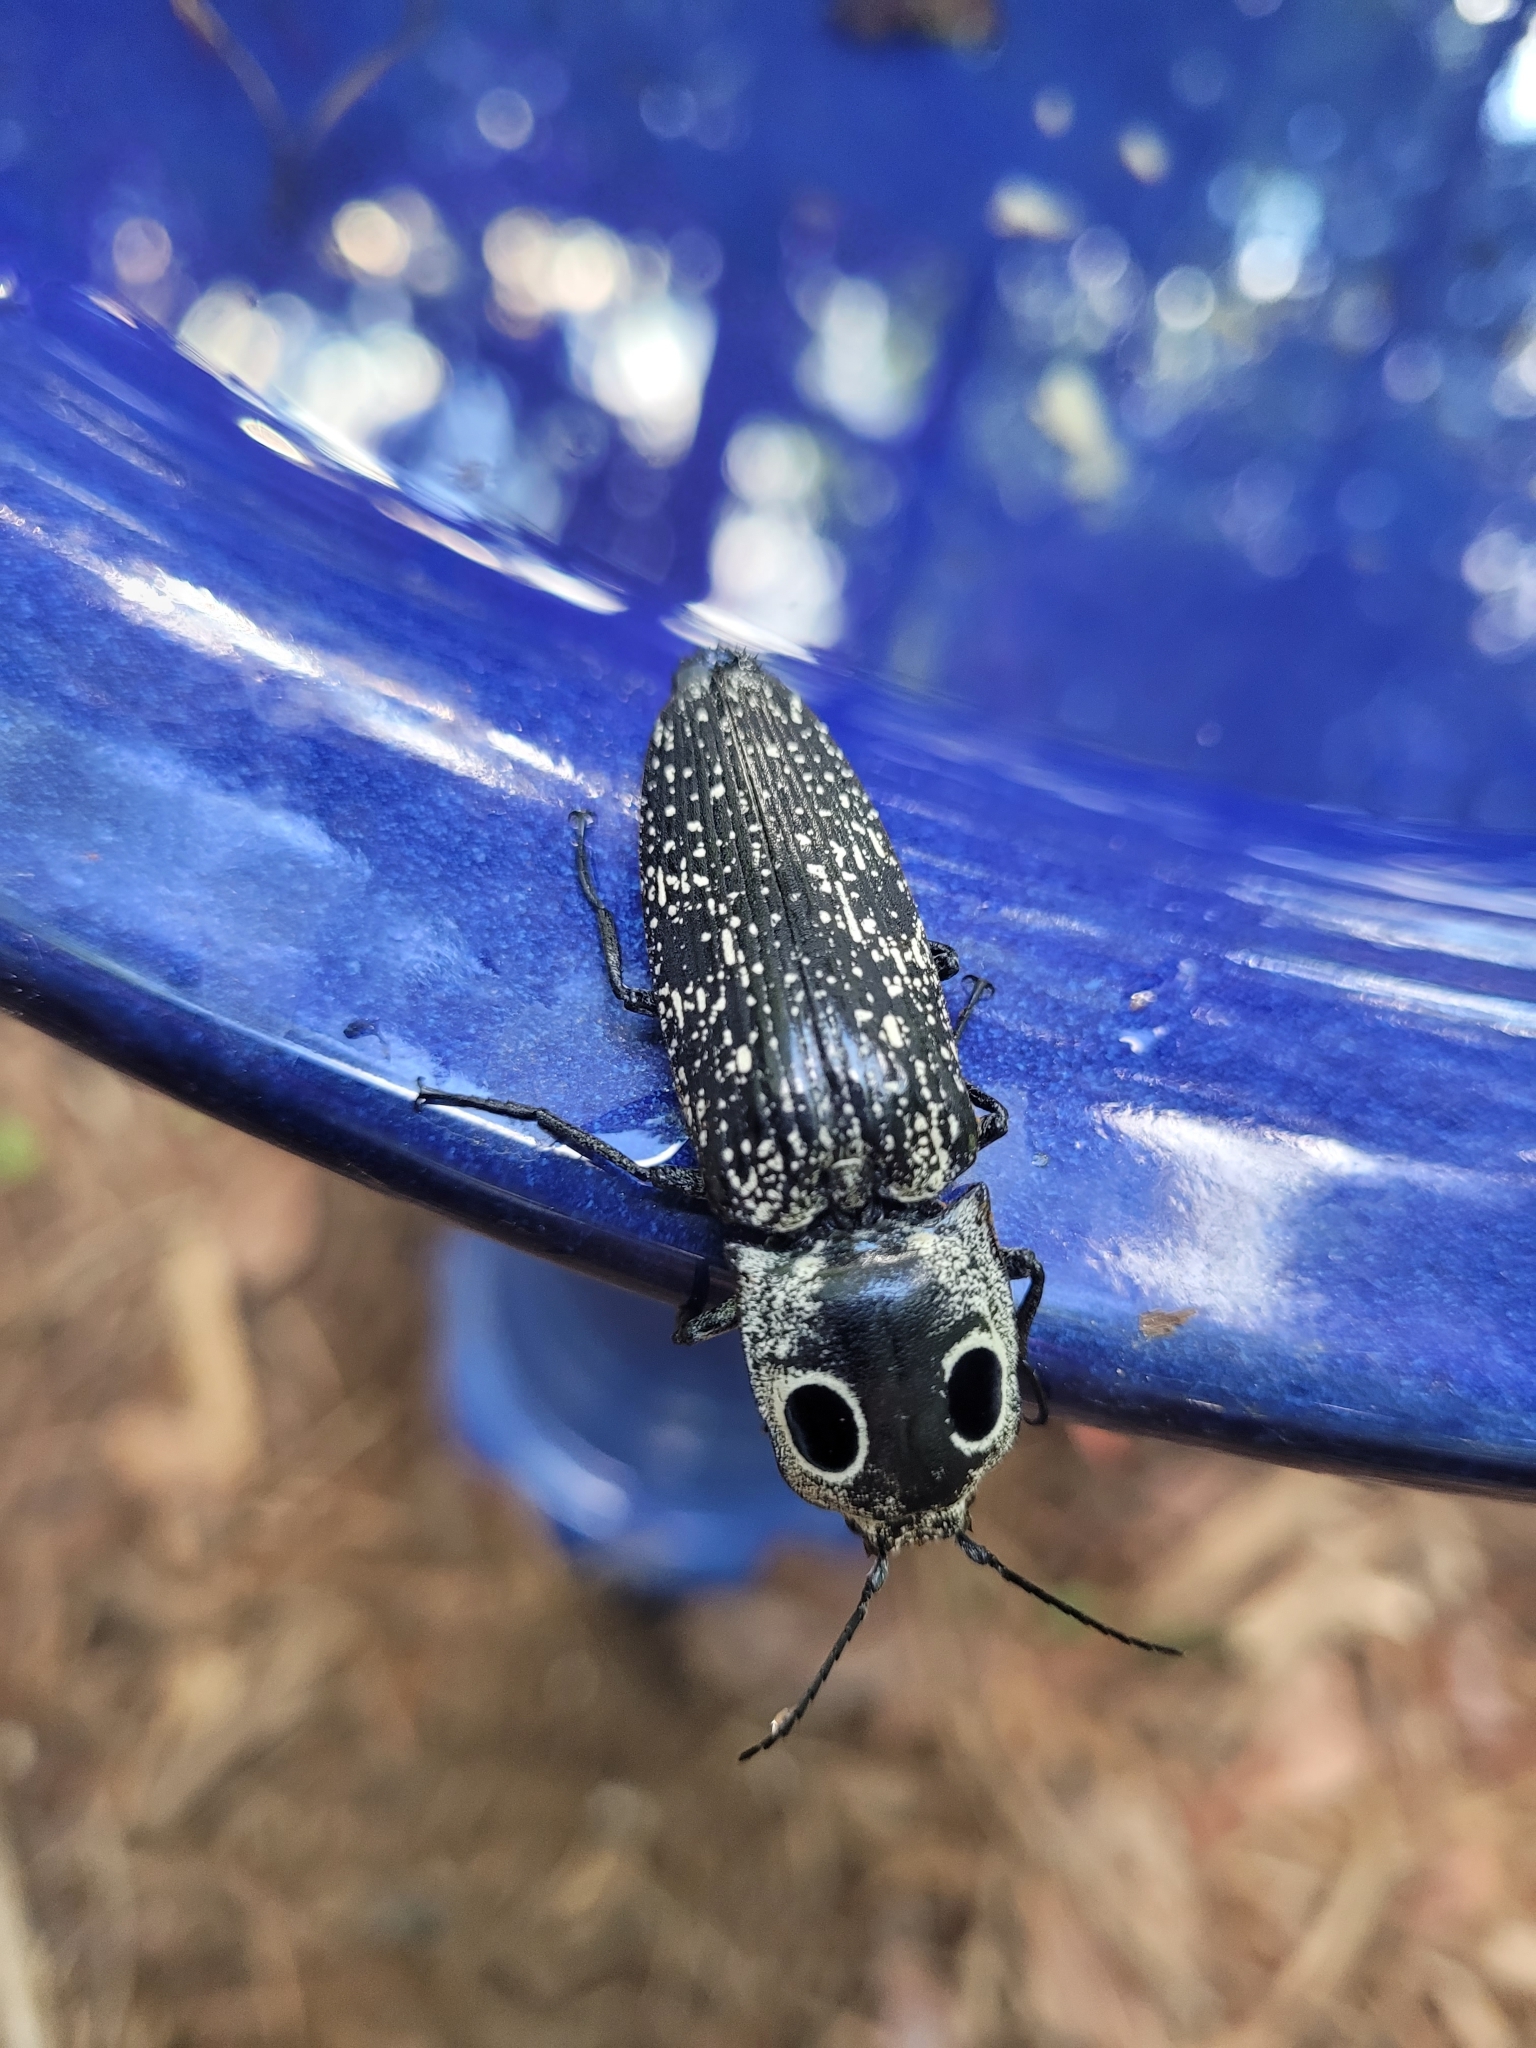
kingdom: Animalia
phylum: Arthropoda
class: Insecta
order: Coleoptera
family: Elateridae
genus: Alaus
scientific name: Alaus oculatus
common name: Eastern eyed click beetle
